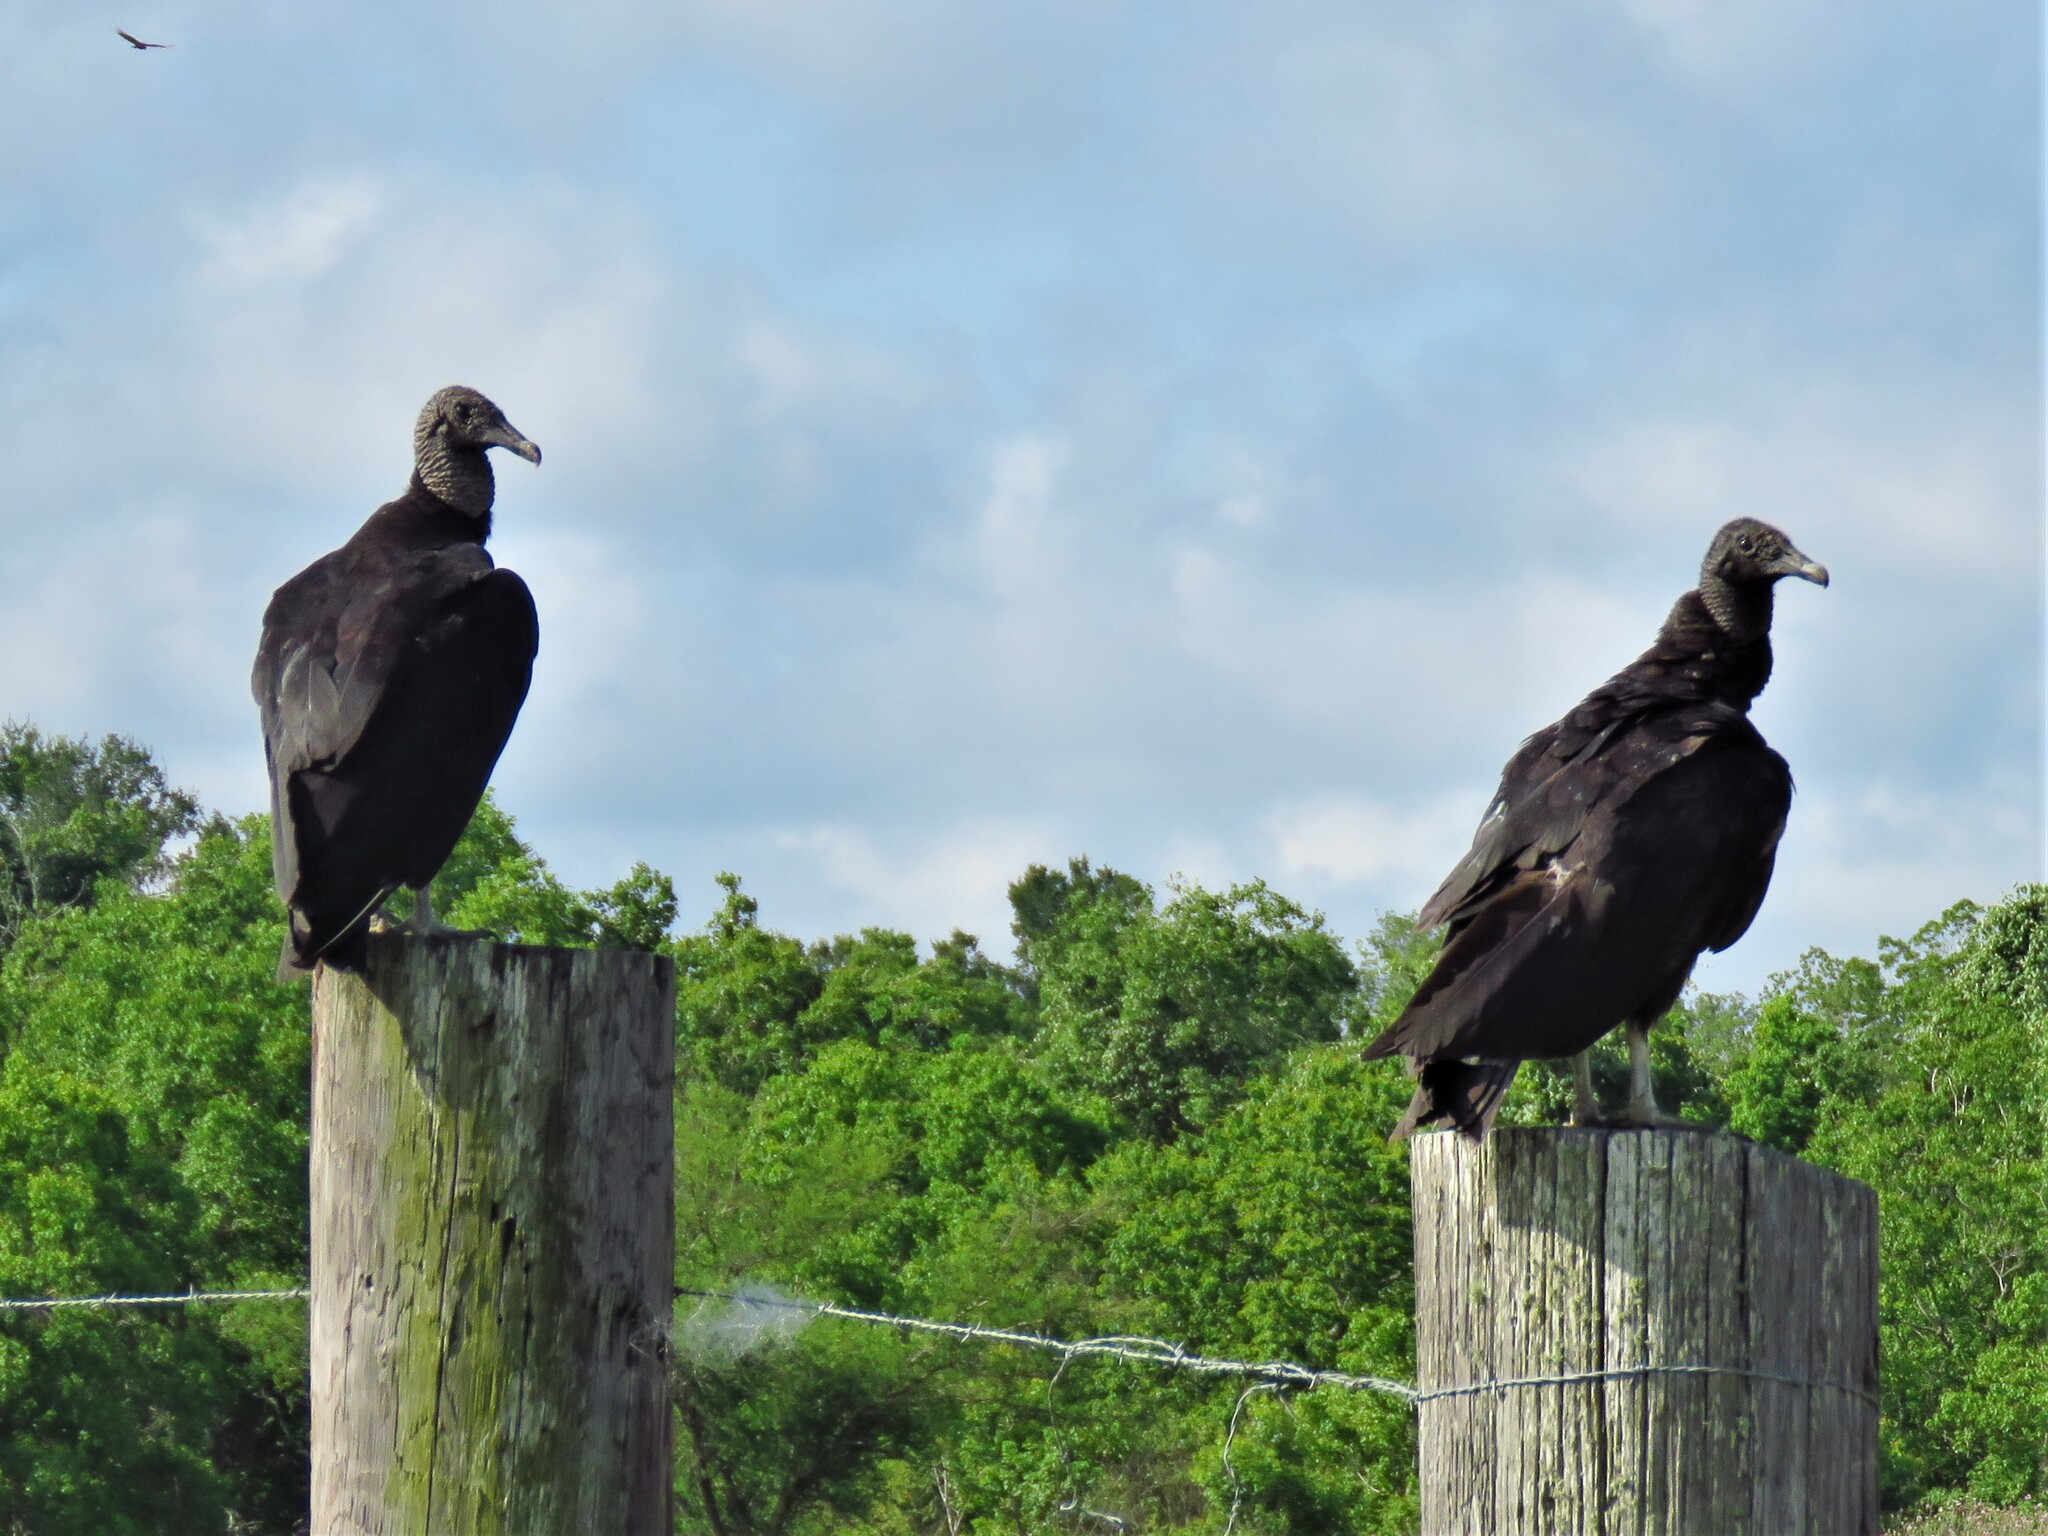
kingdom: Animalia
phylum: Chordata
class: Aves
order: Accipitriformes
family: Cathartidae
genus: Coragyps
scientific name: Coragyps atratus
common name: Black vulture
